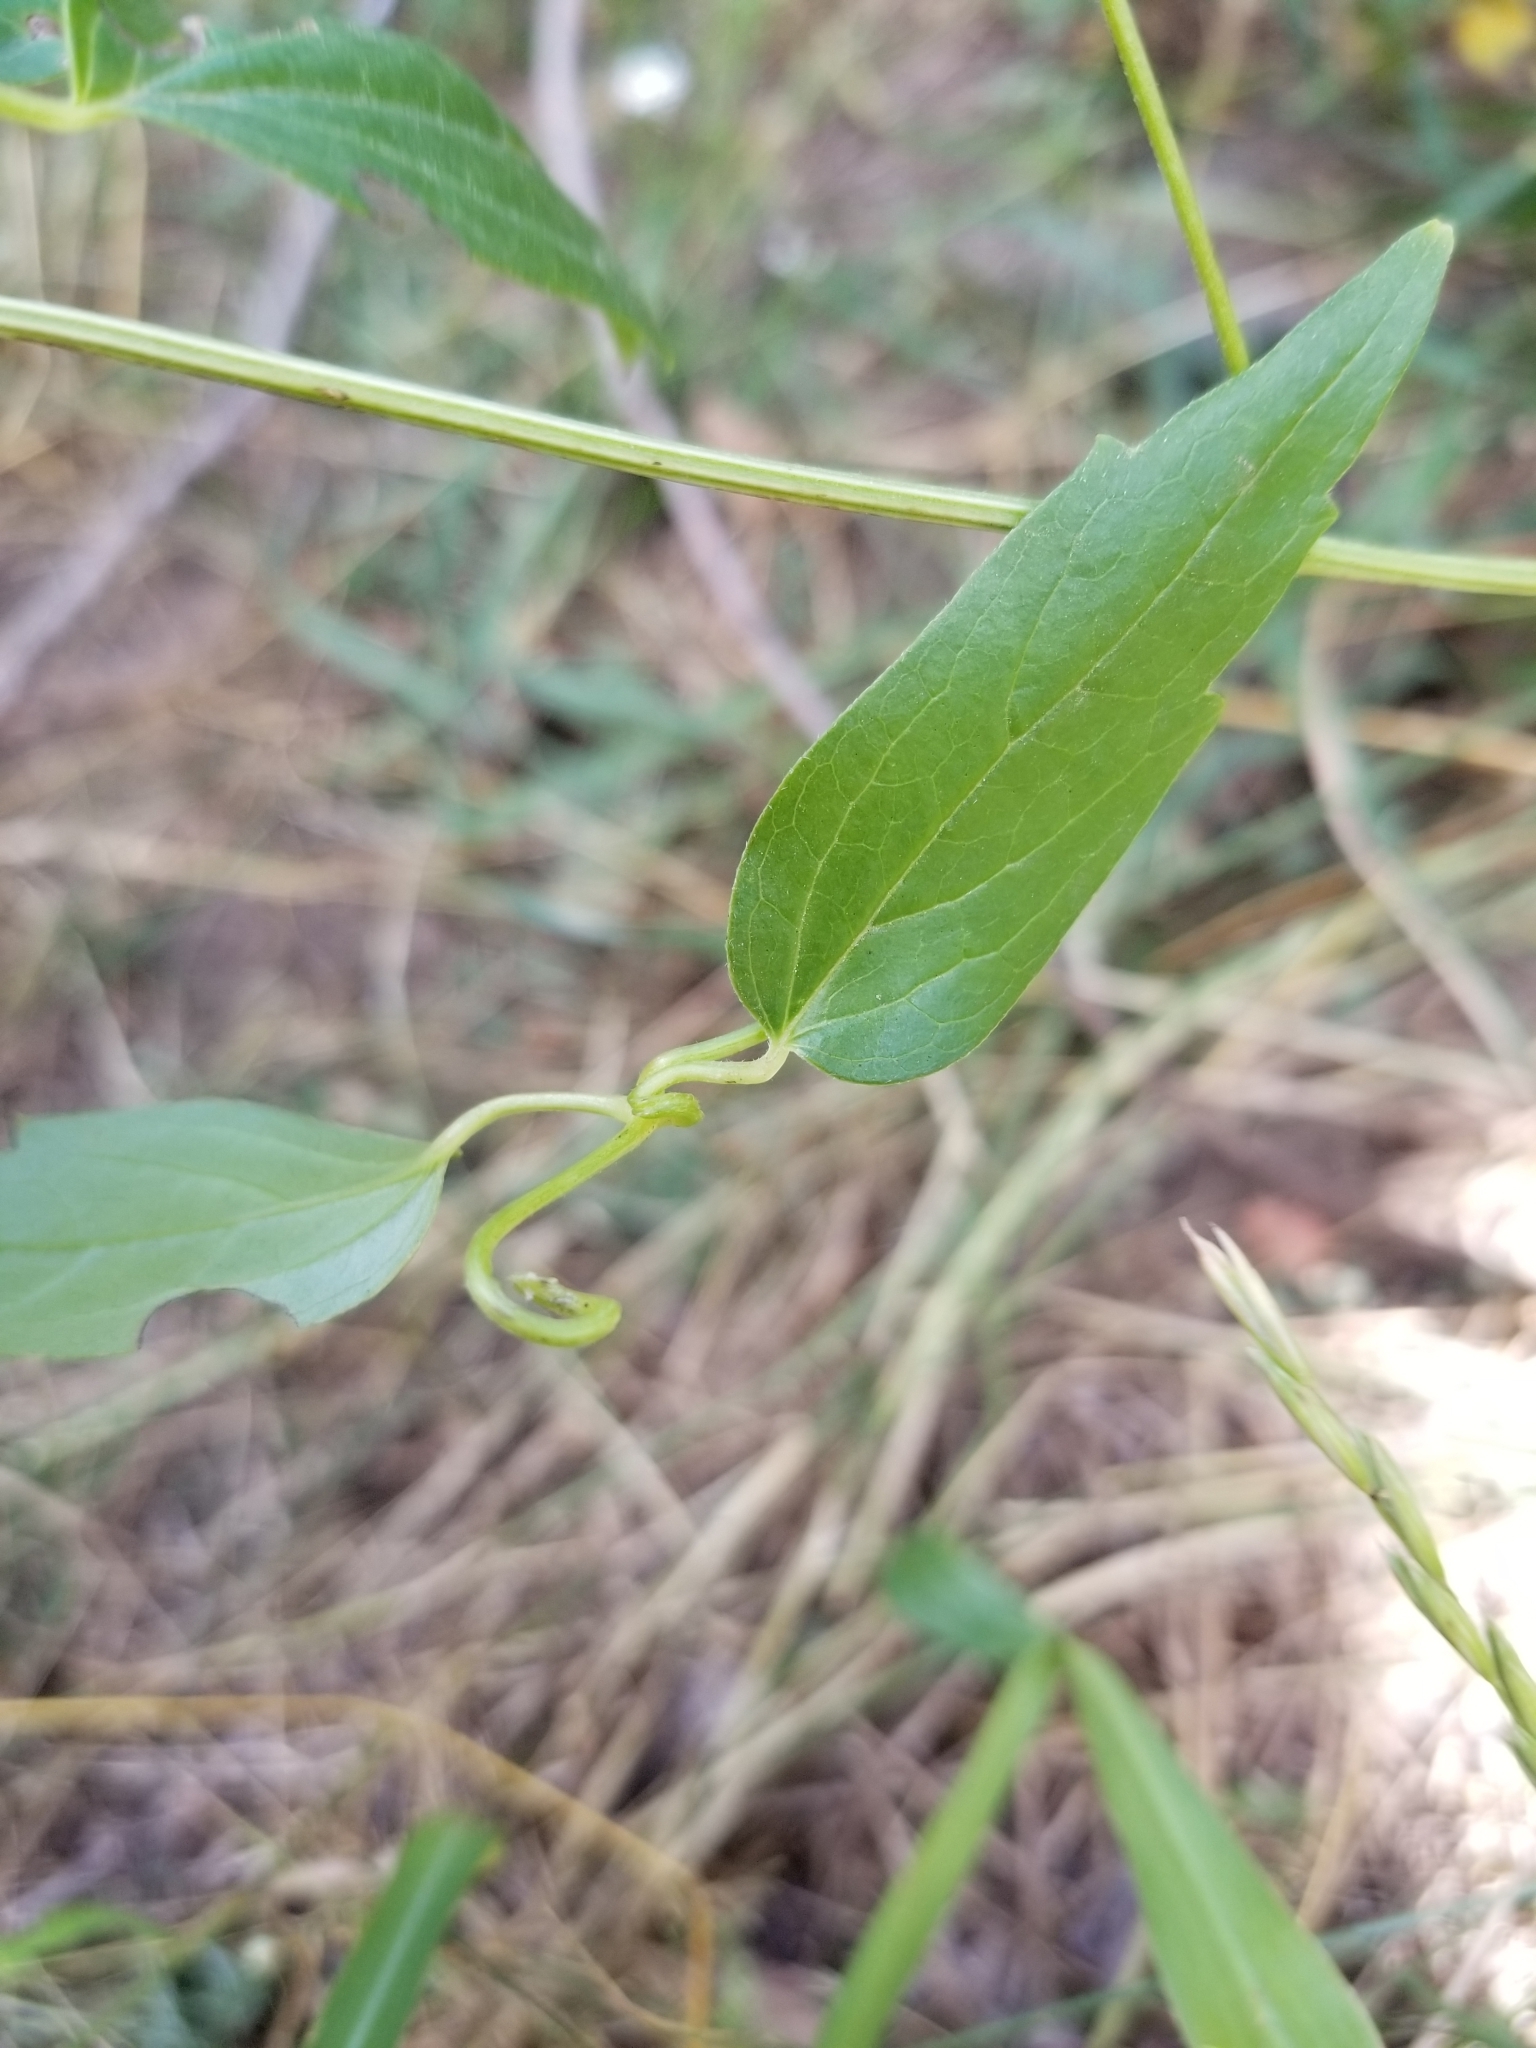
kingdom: Plantae
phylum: Tracheophyta
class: Magnoliopsida
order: Ranunculales
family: Ranunculaceae
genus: Clematis
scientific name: Clematis ligusticifolia
